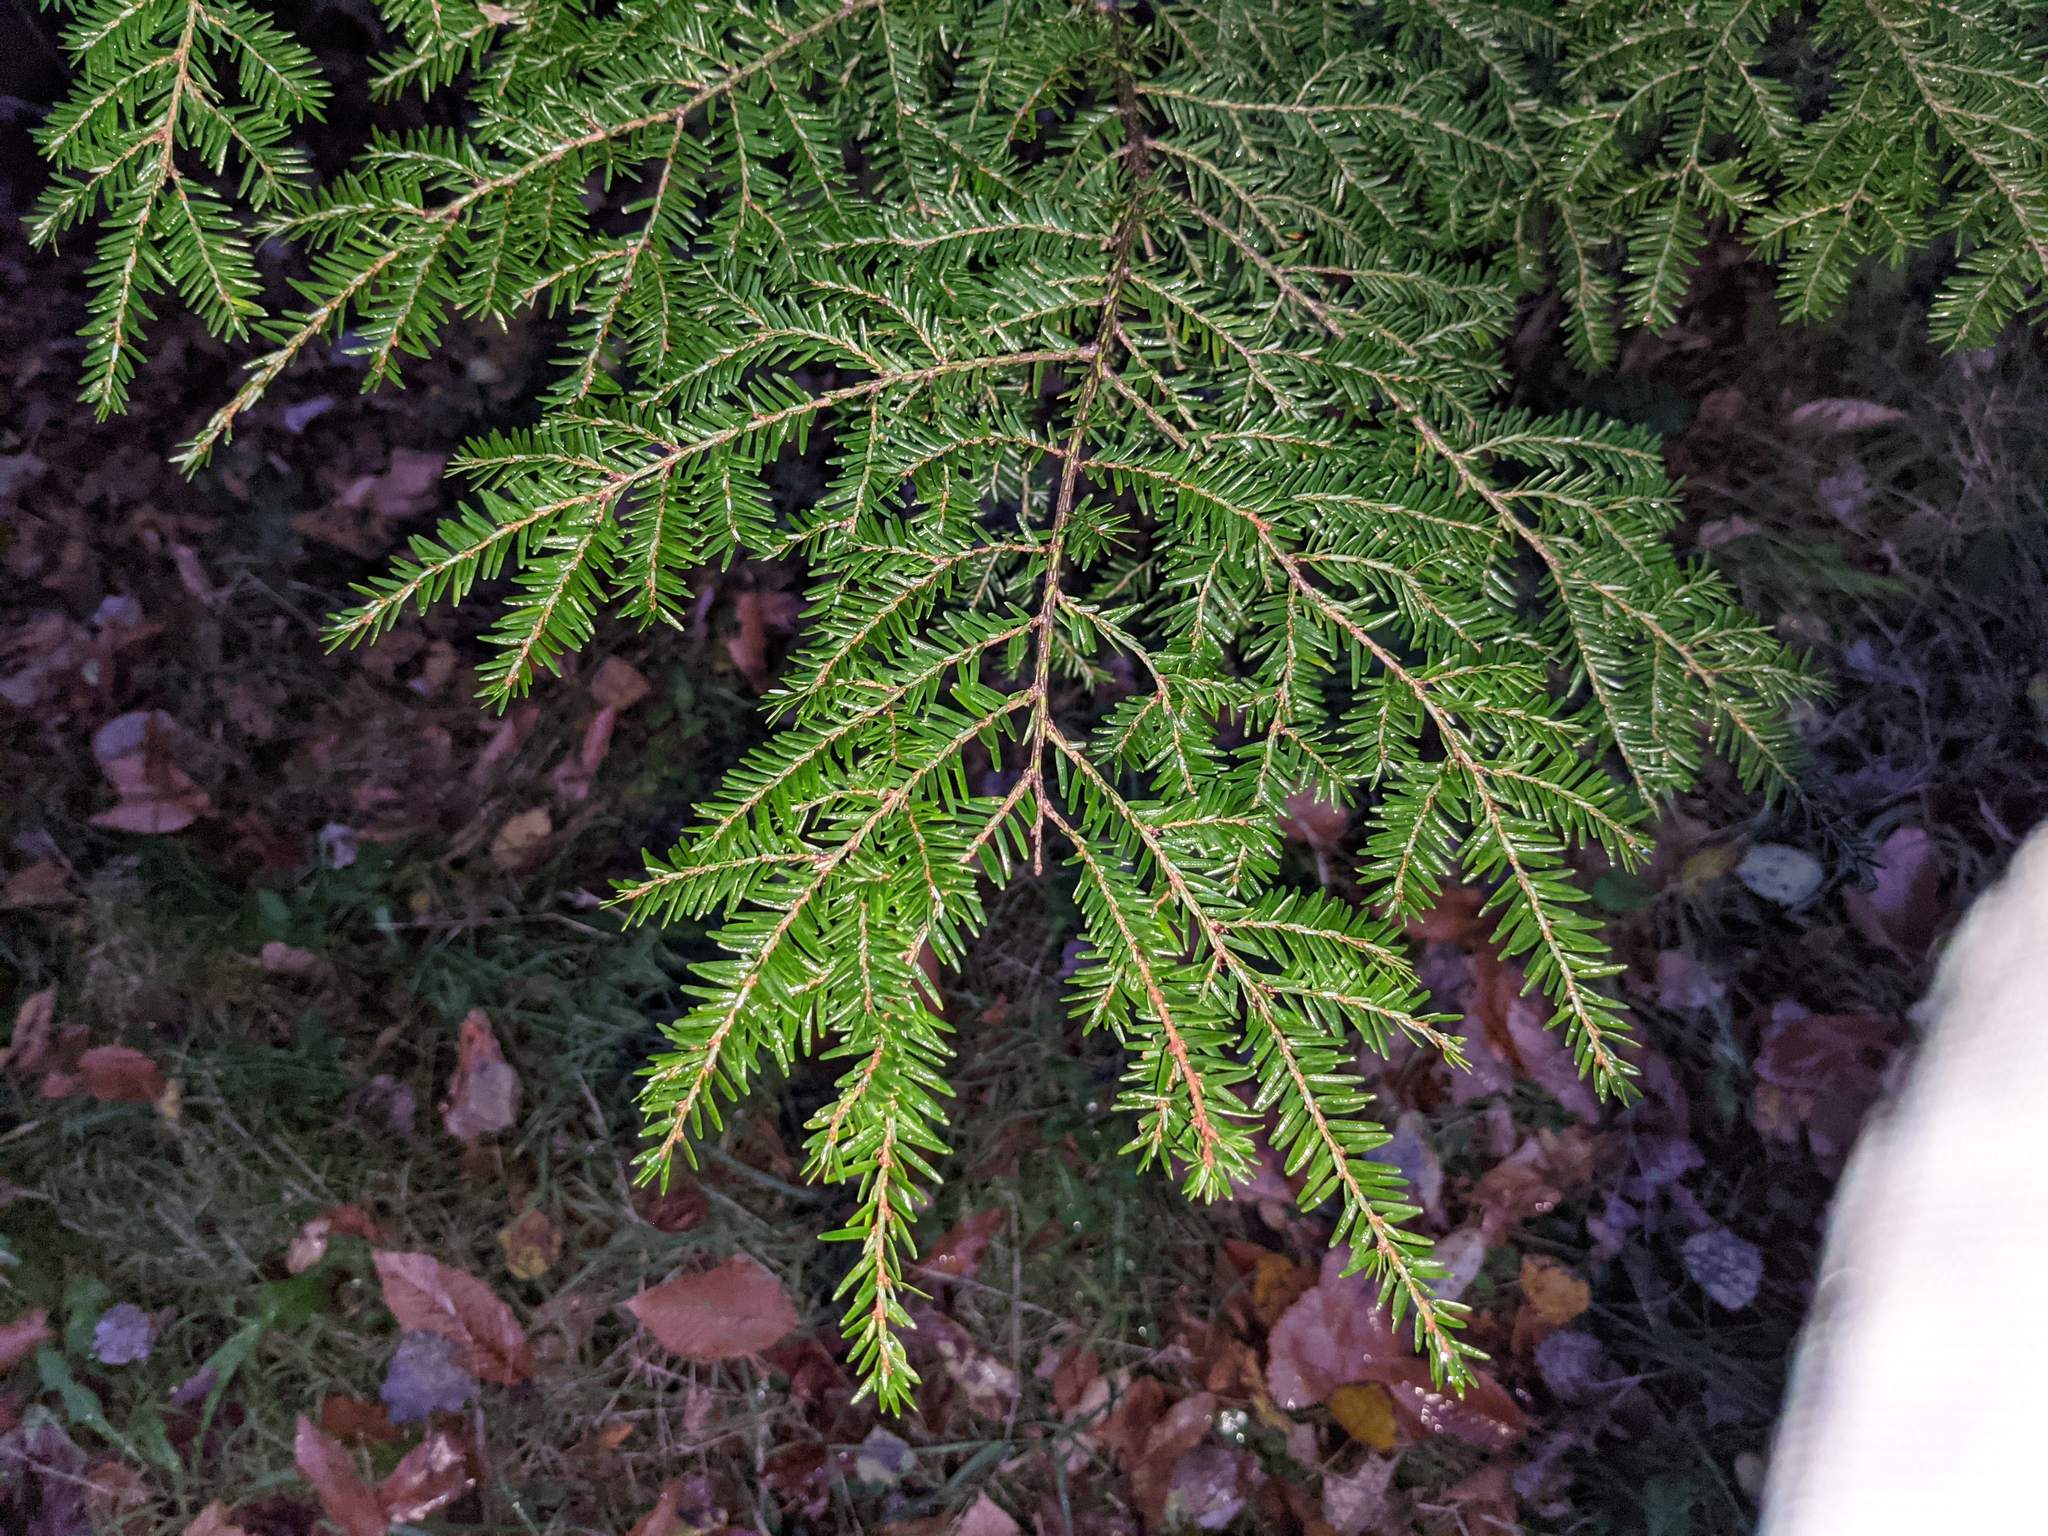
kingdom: Plantae
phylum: Tracheophyta
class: Pinopsida
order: Pinales
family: Pinaceae
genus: Tsuga
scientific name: Tsuga canadensis
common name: Eastern hemlock
